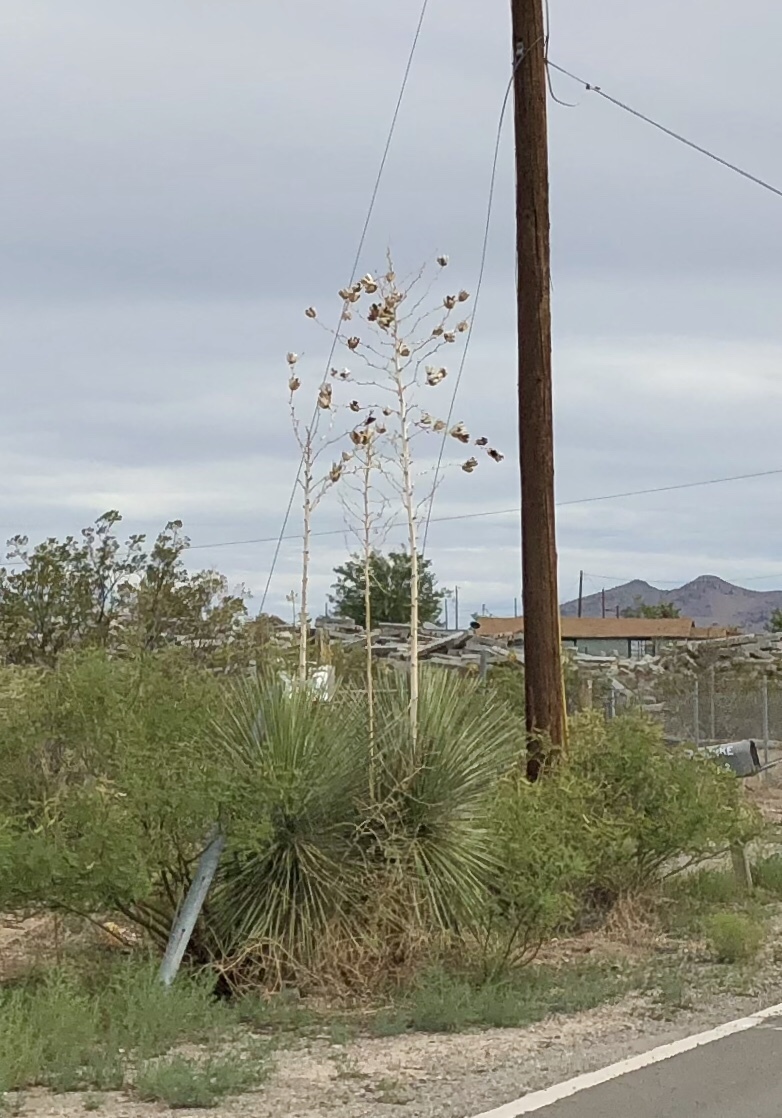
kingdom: Plantae
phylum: Tracheophyta
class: Liliopsida
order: Asparagales
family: Asparagaceae
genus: Yucca
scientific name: Yucca elata
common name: Palmella
